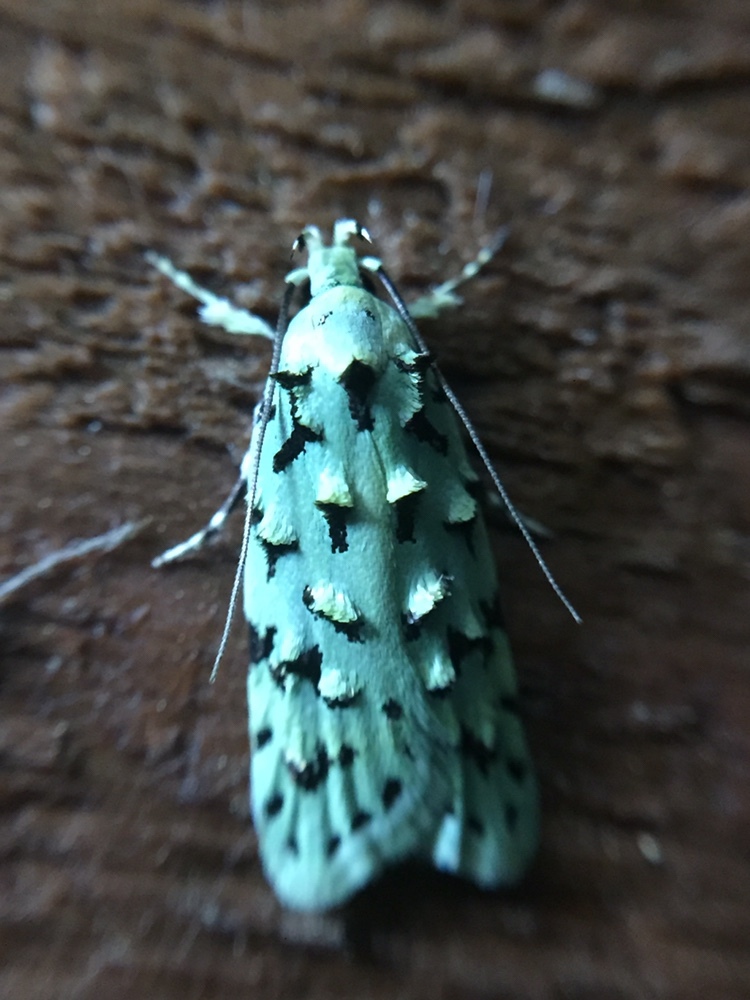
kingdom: Animalia
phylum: Arthropoda
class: Insecta
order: Lepidoptera
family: Oecophoridae
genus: Izatha
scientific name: Izatha peroneanella
